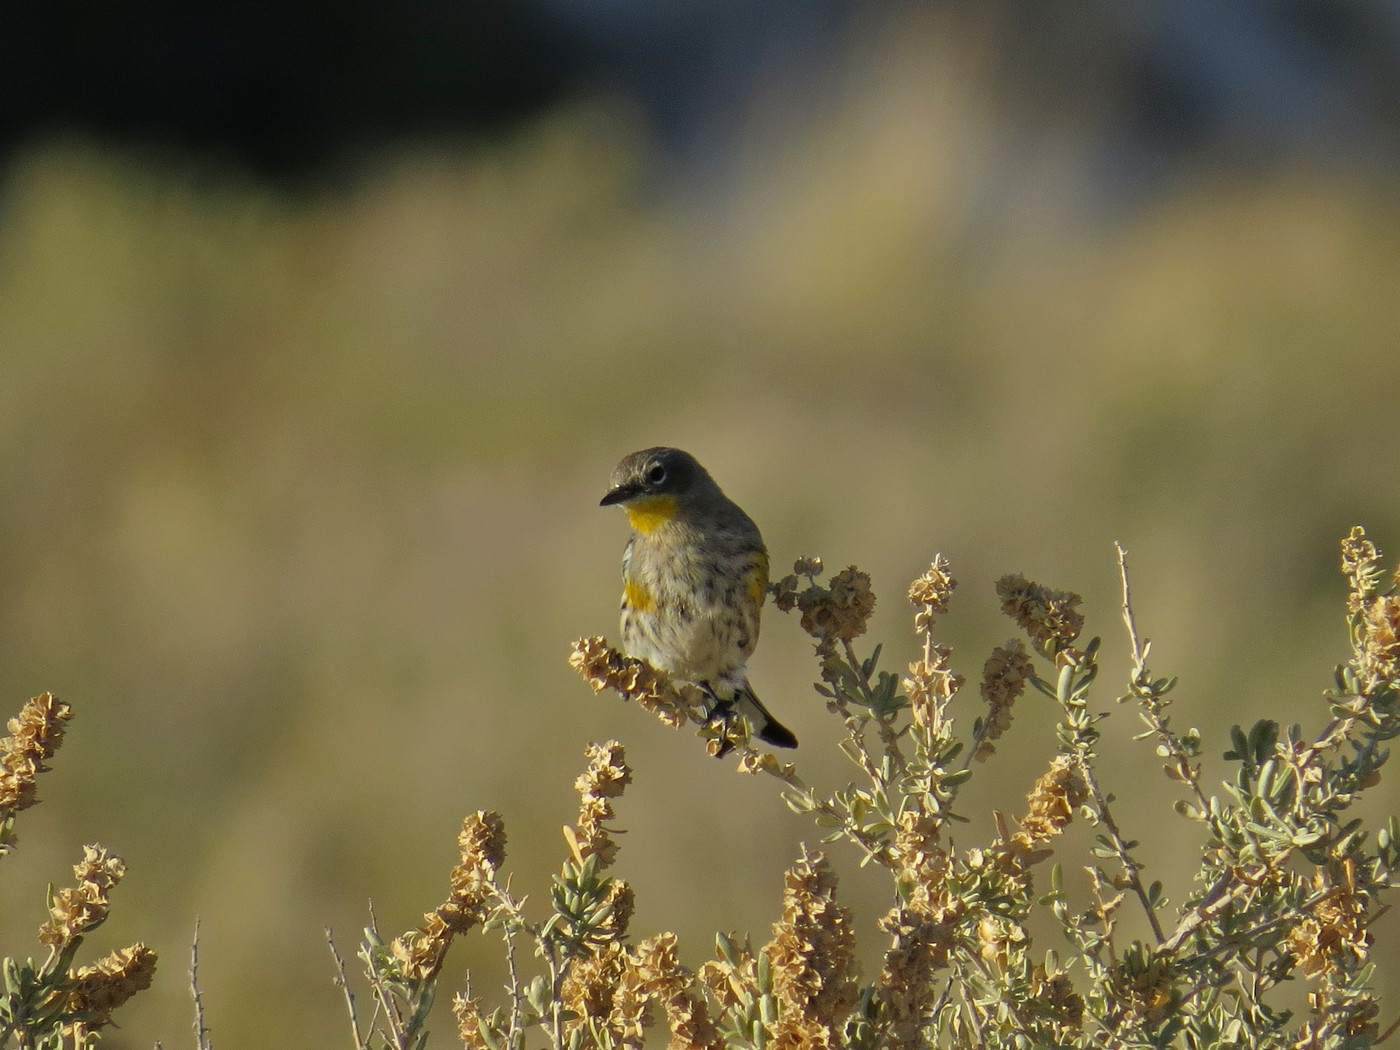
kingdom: Animalia
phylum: Chordata
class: Aves
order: Passeriformes
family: Parulidae
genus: Setophaga
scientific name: Setophaga coronata
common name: Myrtle warbler
